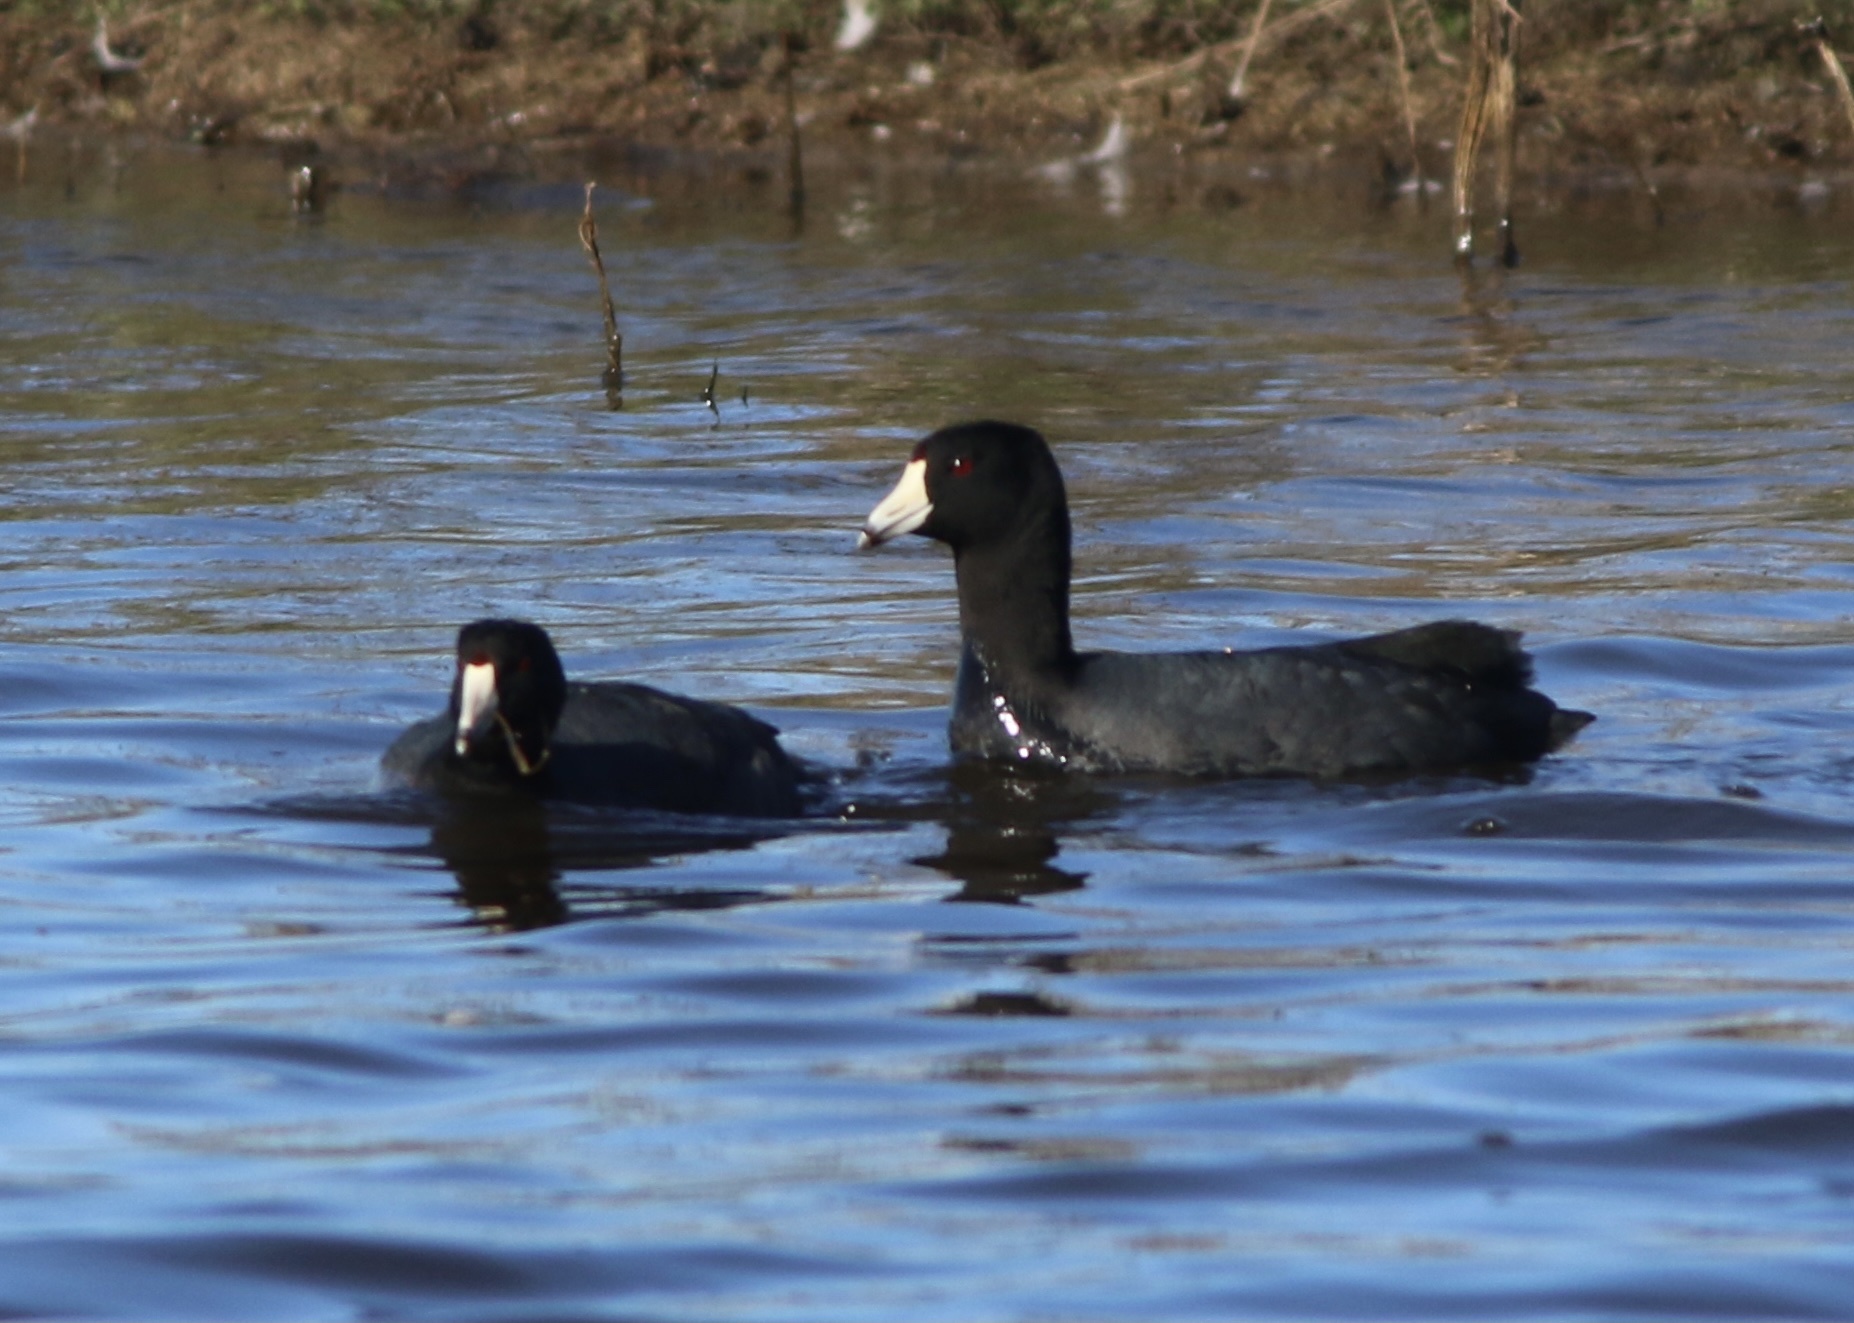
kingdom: Animalia
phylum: Chordata
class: Aves
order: Gruiformes
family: Rallidae
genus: Fulica
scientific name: Fulica americana
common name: American coot
